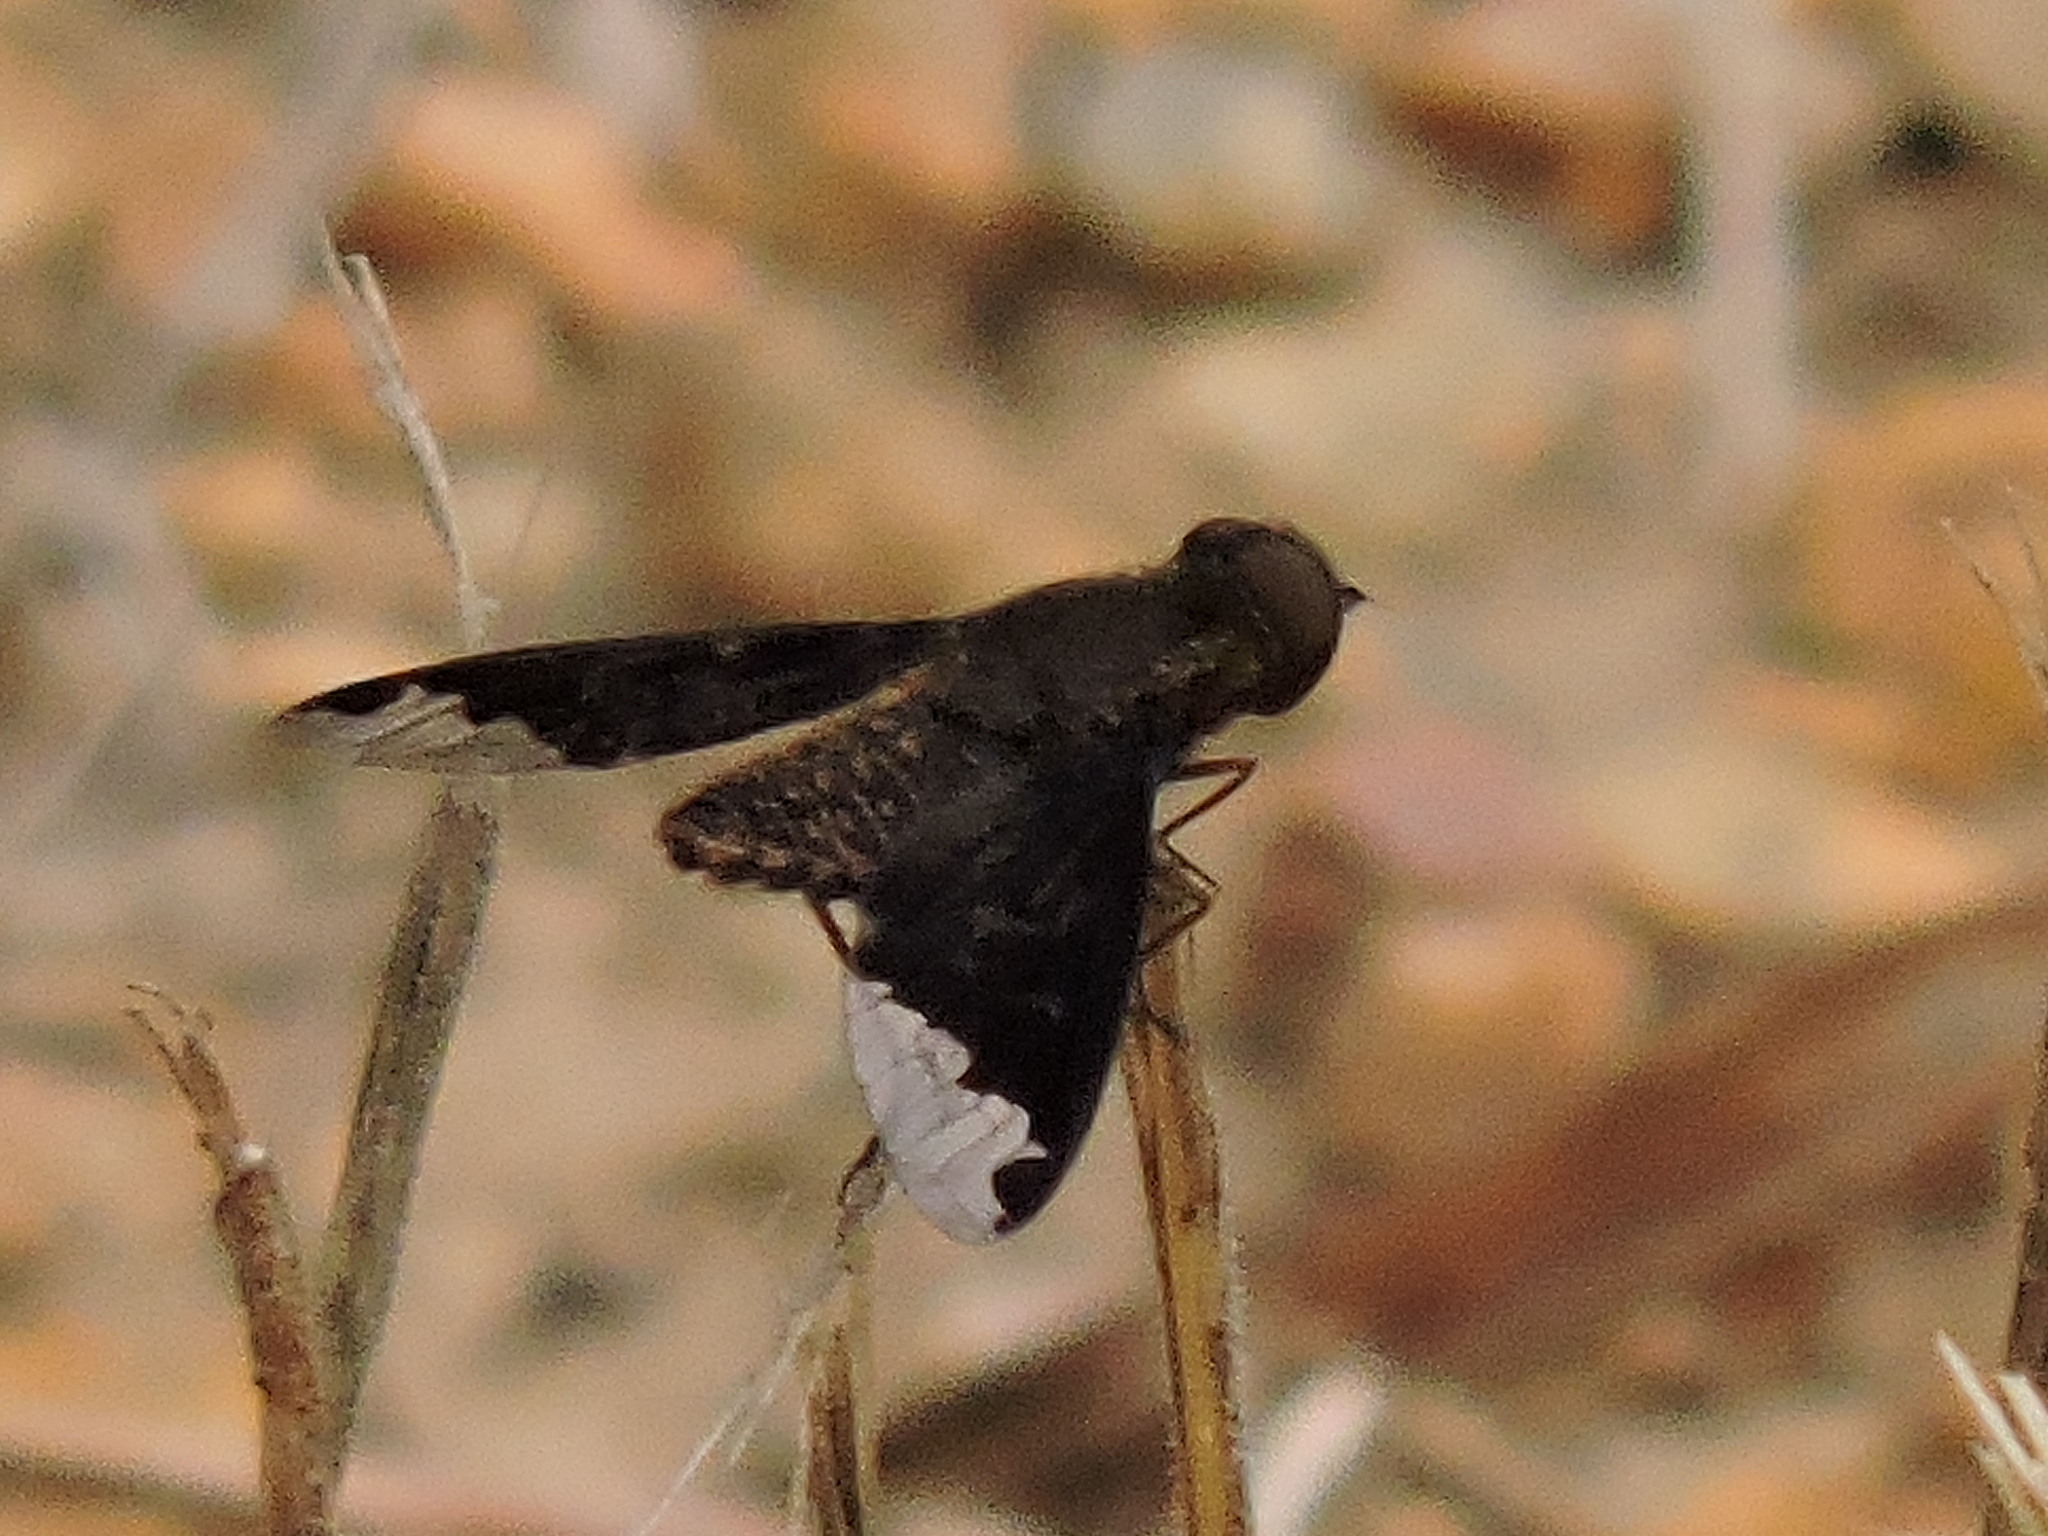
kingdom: Animalia
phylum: Arthropoda
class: Insecta
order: Diptera
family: Bombyliidae
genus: Hemipenthes
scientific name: Hemipenthes sinuosus
